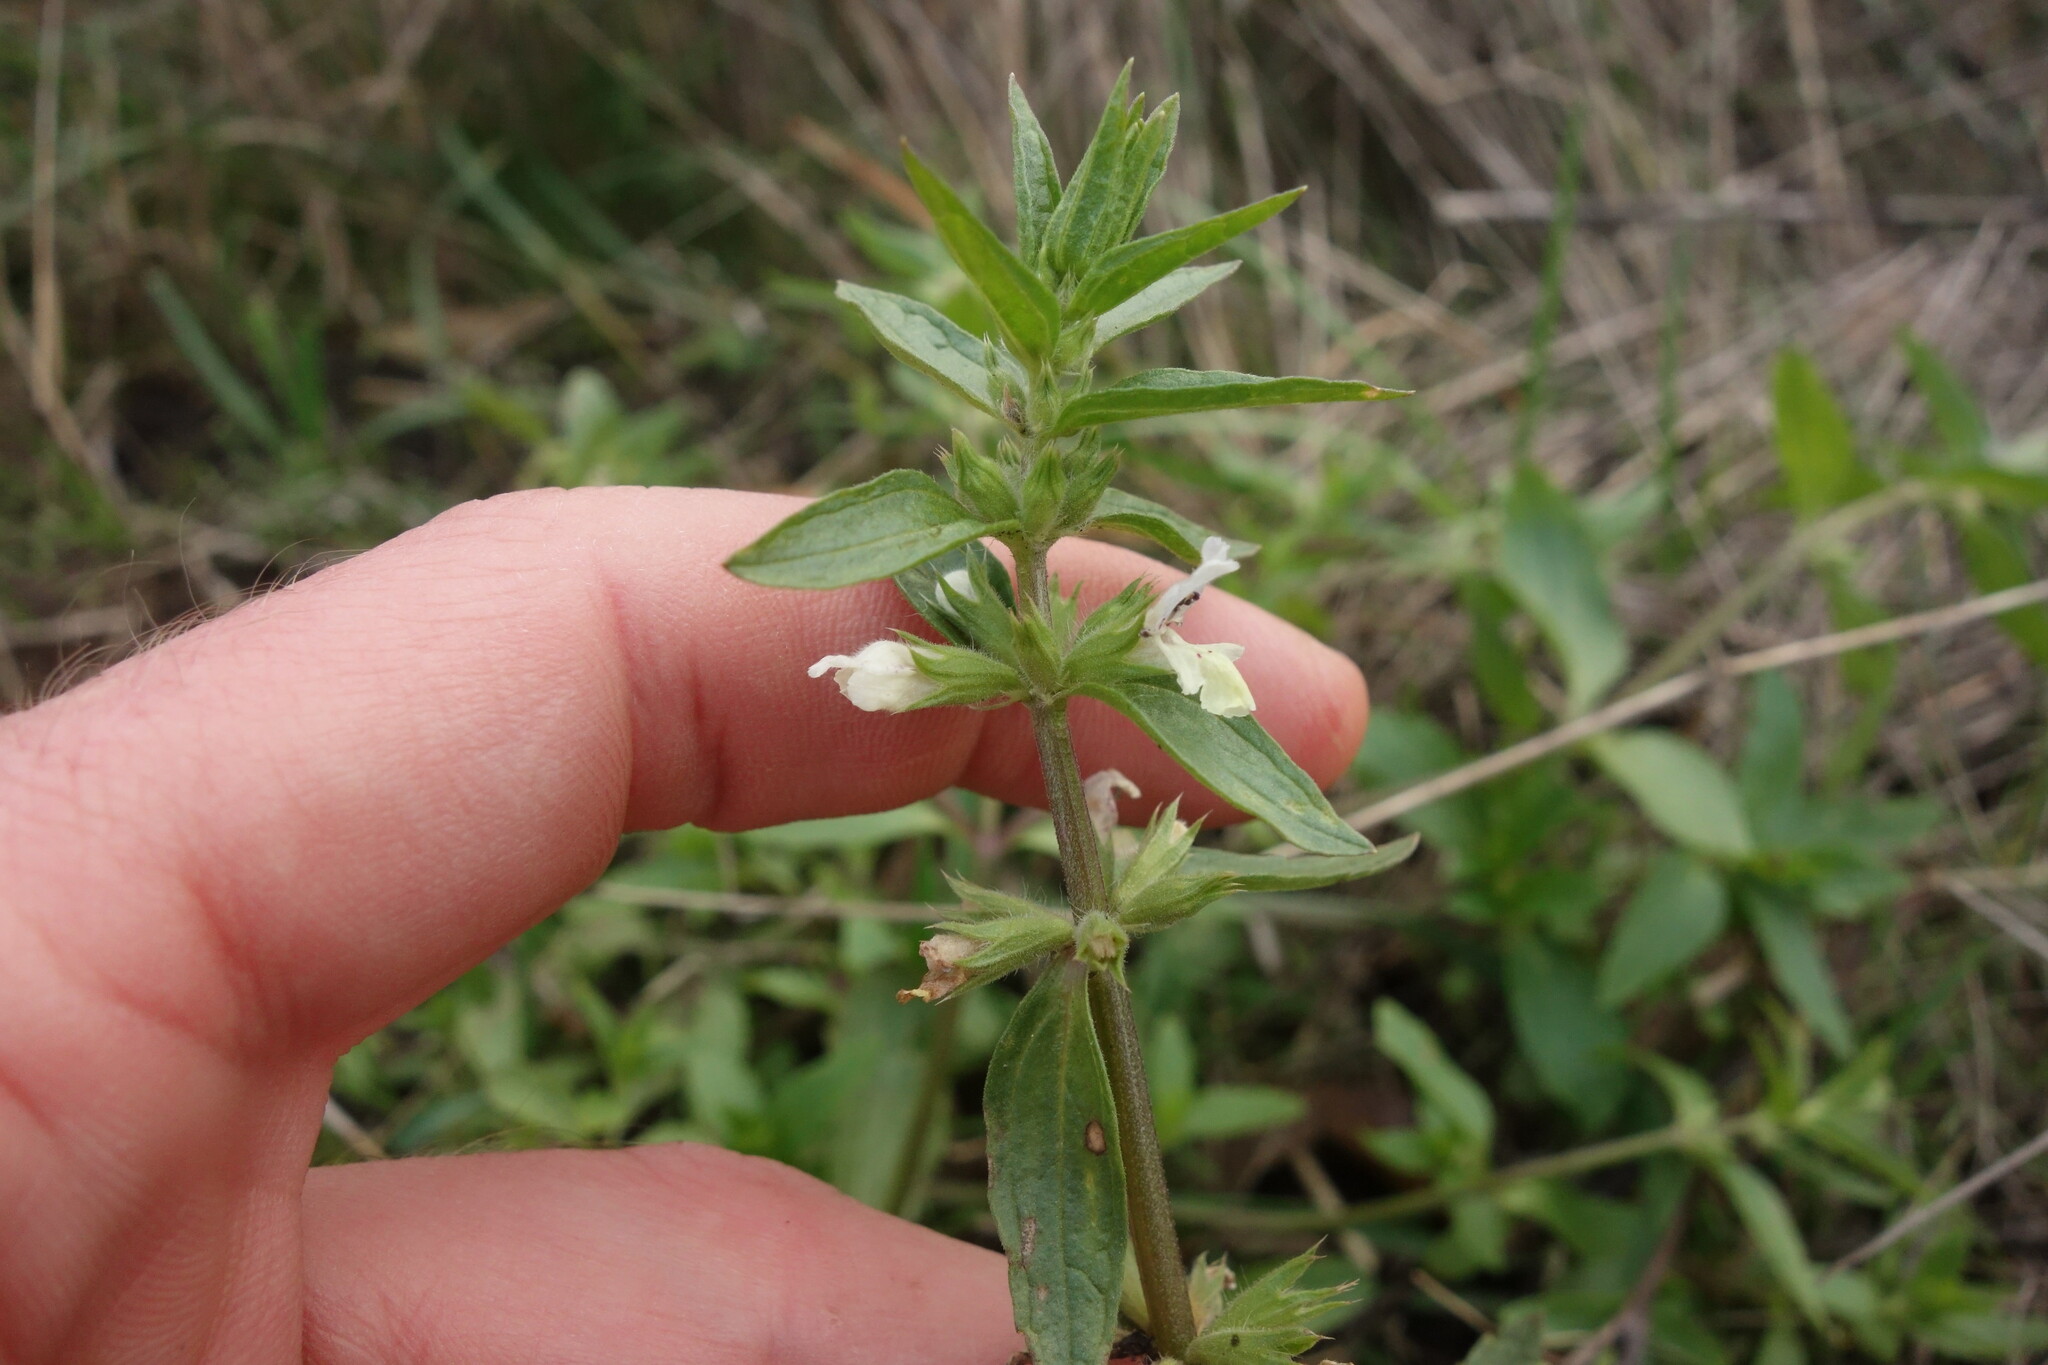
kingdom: Plantae
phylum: Tracheophyta
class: Magnoliopsida
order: Lamiales
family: Lamiaceae
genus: Stachys
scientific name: Stachys annua
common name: Annual yellow-woundwort
